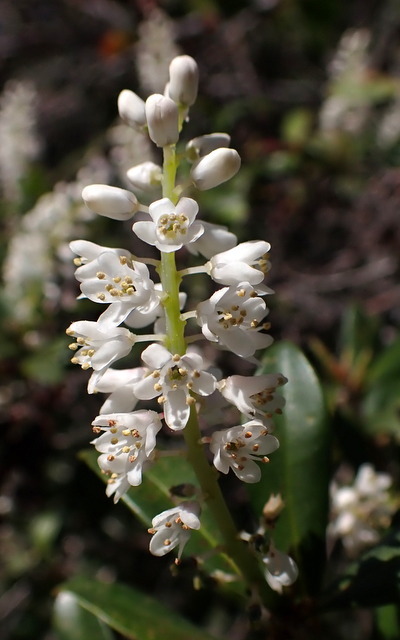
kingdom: Plantae
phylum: Tracheophyta
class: Magnoliopsida
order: Ericales
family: Cyrillaceae
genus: Cliftonia
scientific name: Cliftonia monophylla
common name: Titi
